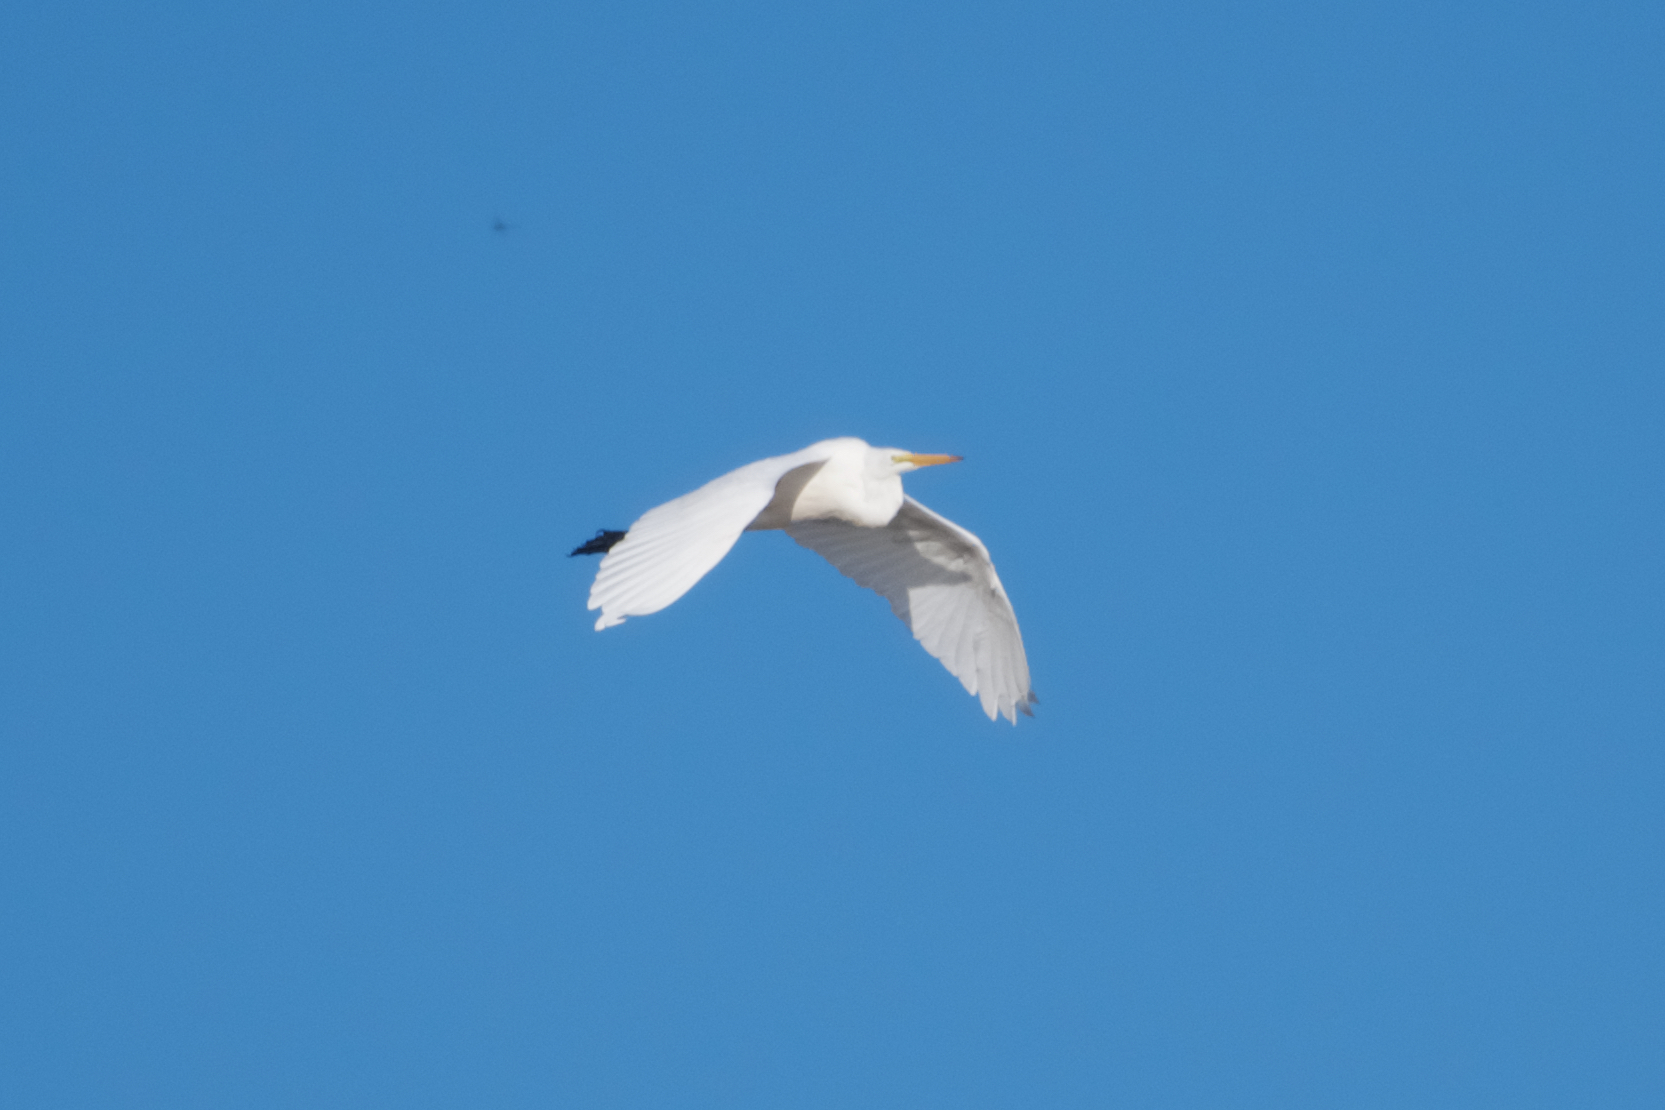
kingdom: Animalia
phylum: Chordata
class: Aves
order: Pelecaniformes
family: Ardeidae
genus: Ardea
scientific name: Ardea alba
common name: Great egret
